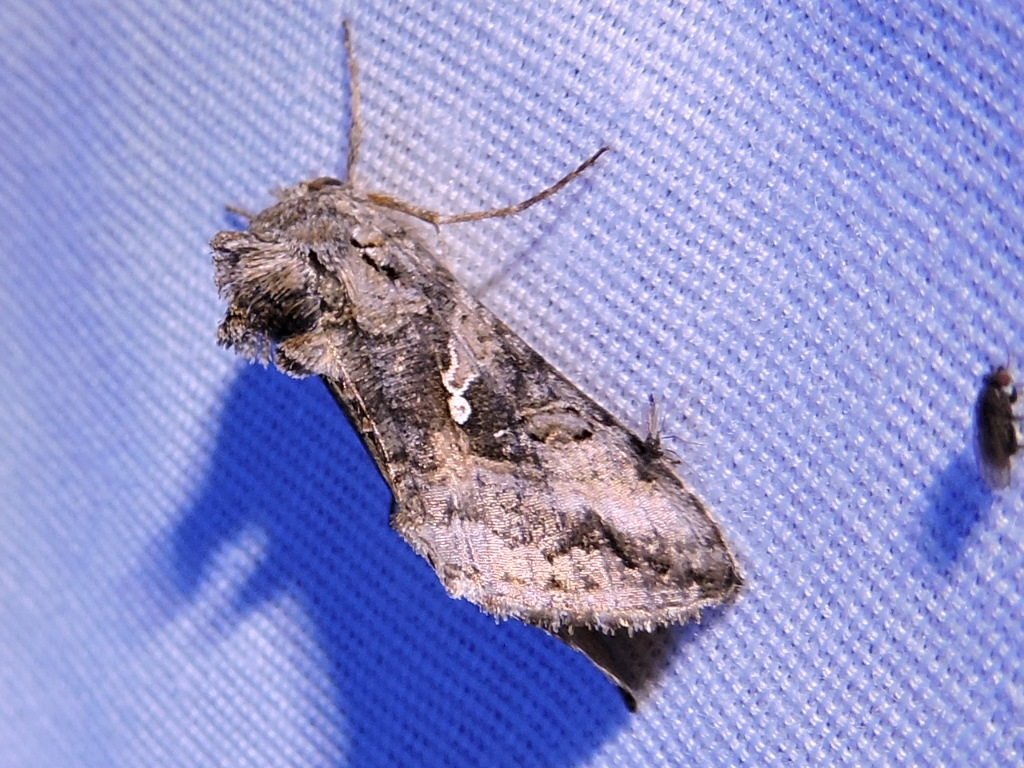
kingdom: Animalia
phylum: Arthropoda
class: Insecta
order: Lepidoptera
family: Noctuidae
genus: Rachiplusia
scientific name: Rachiplusia ou
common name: Gray looper moth
